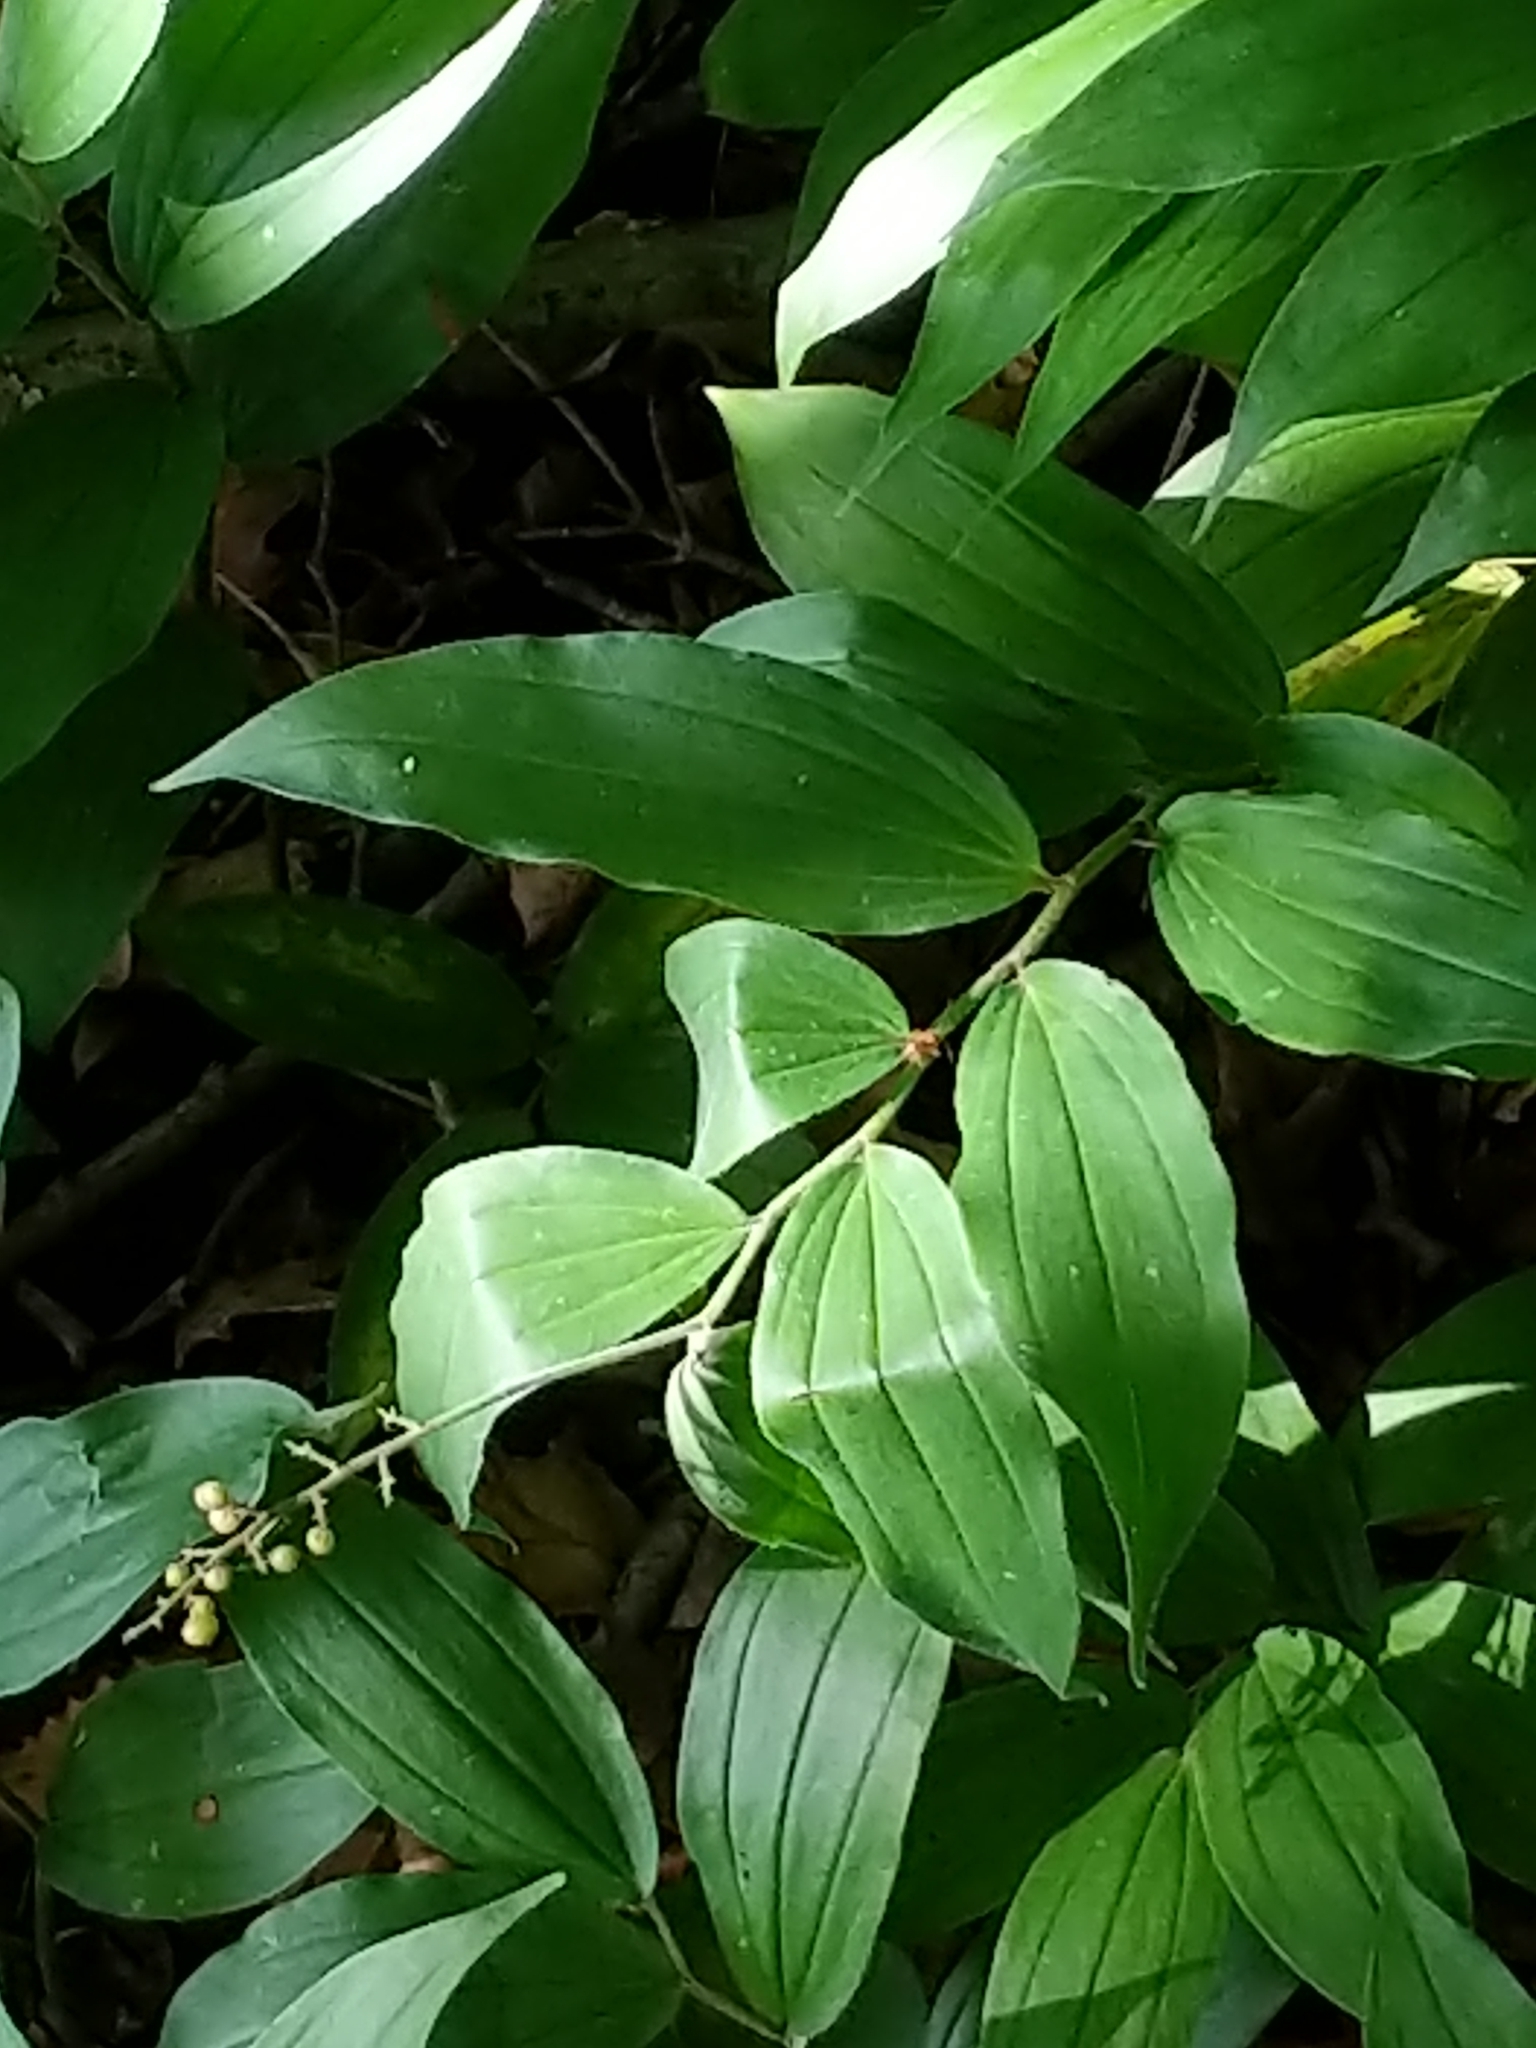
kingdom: Plantae
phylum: Tracheophyta
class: Liliopsida
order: Asparagales
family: Asparagaceae
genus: Maianthemum
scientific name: Maianthemum racemosum
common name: False spikenard
